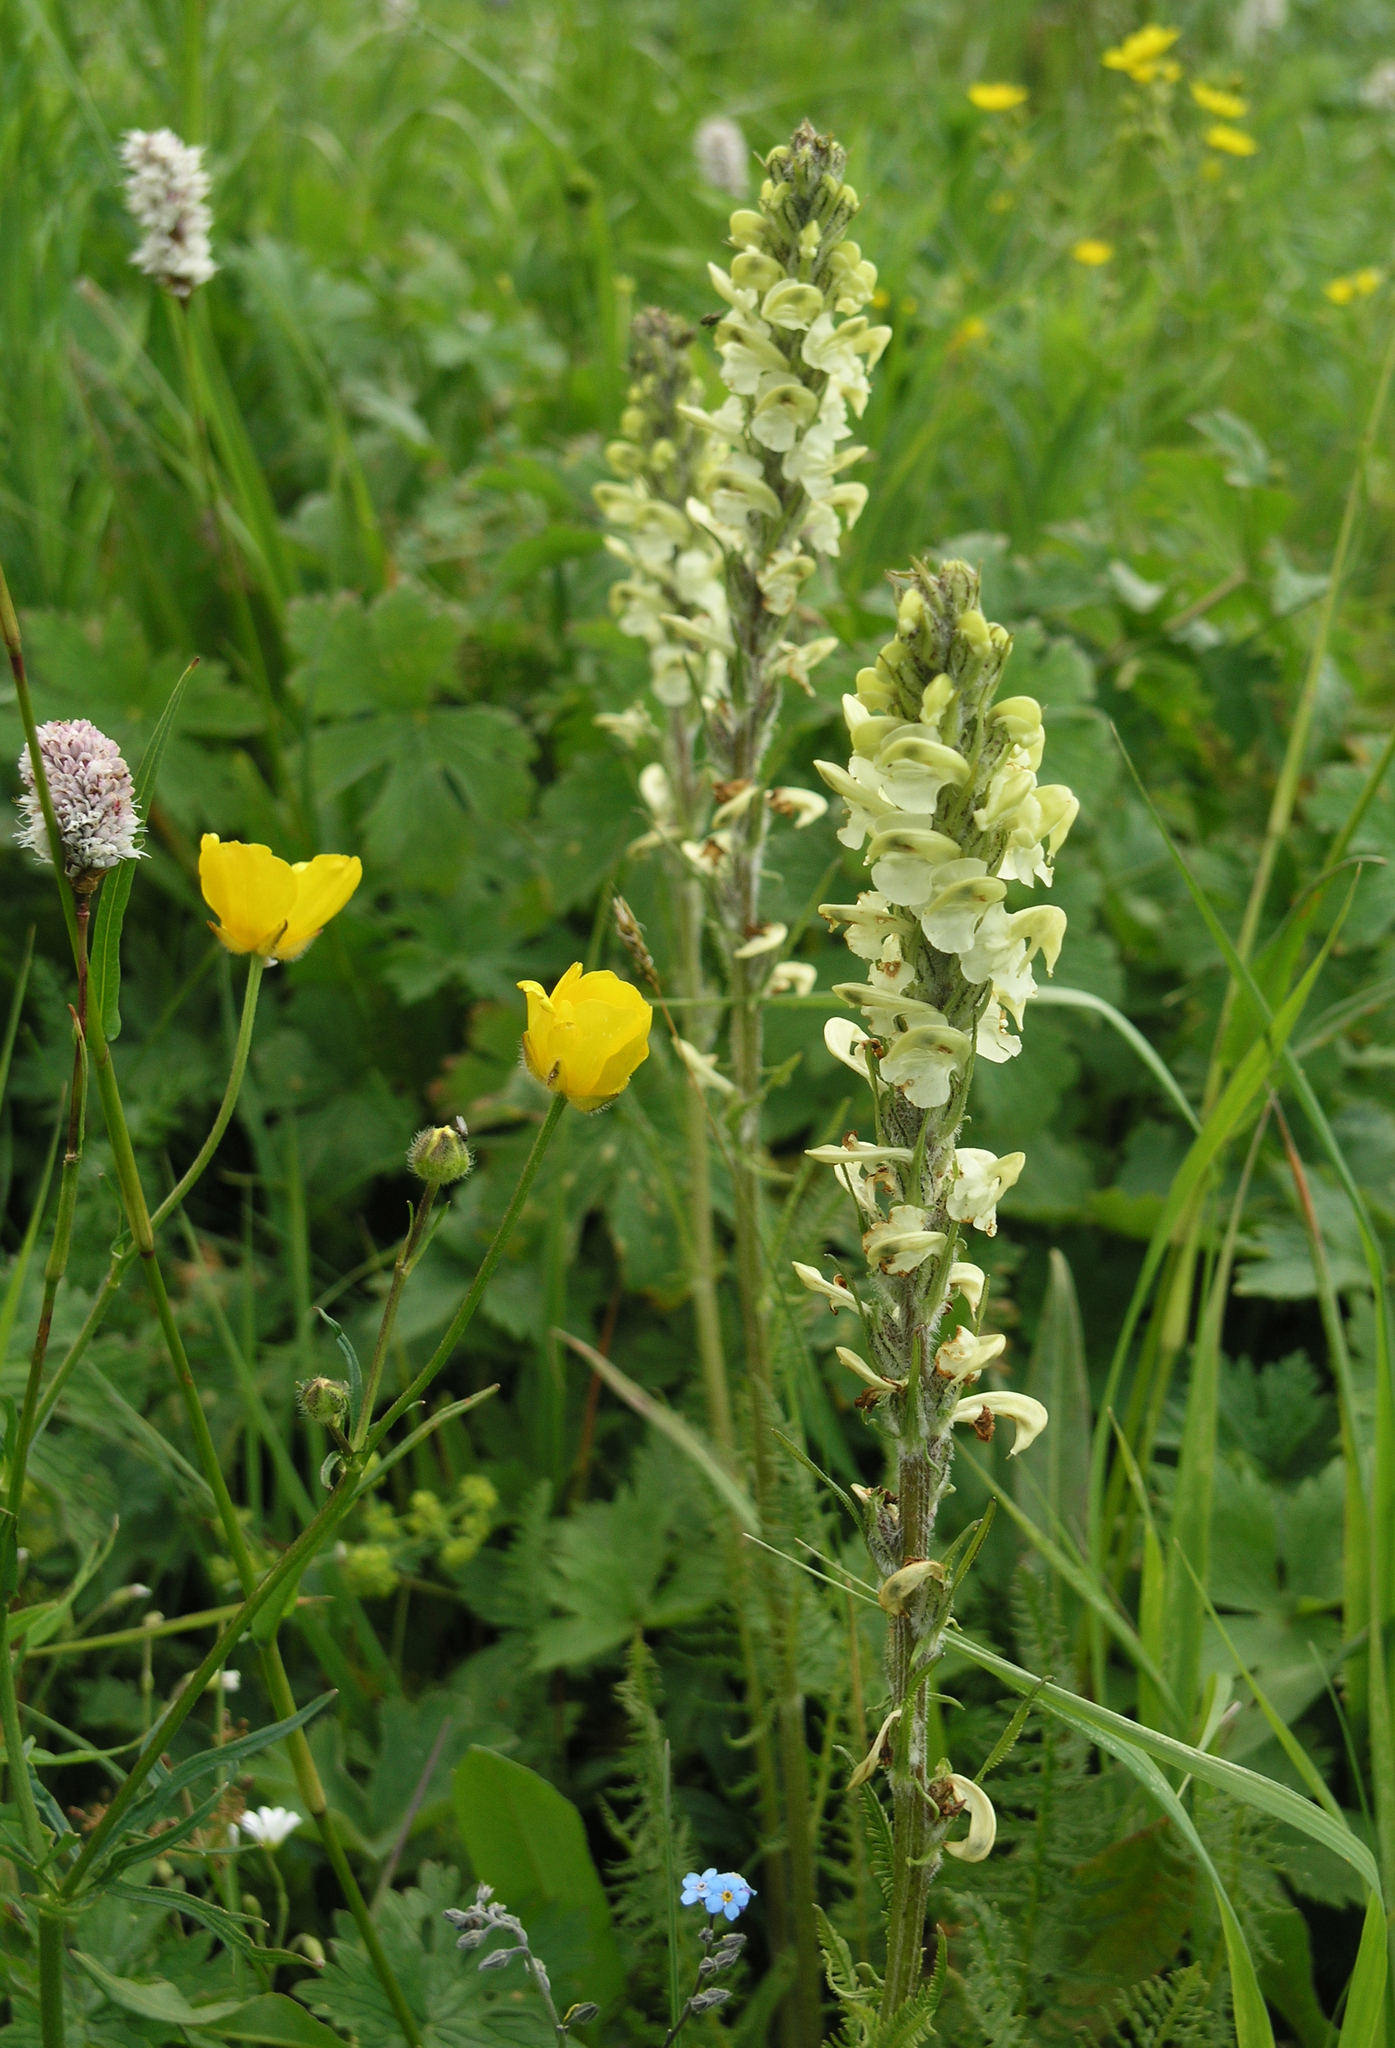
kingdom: Plantae
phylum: Tracheophyta
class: Magnoliopsida
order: Lamiales
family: Orobanchaceae
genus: Pedicularis
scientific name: Pedicularis dolichorrhiza
